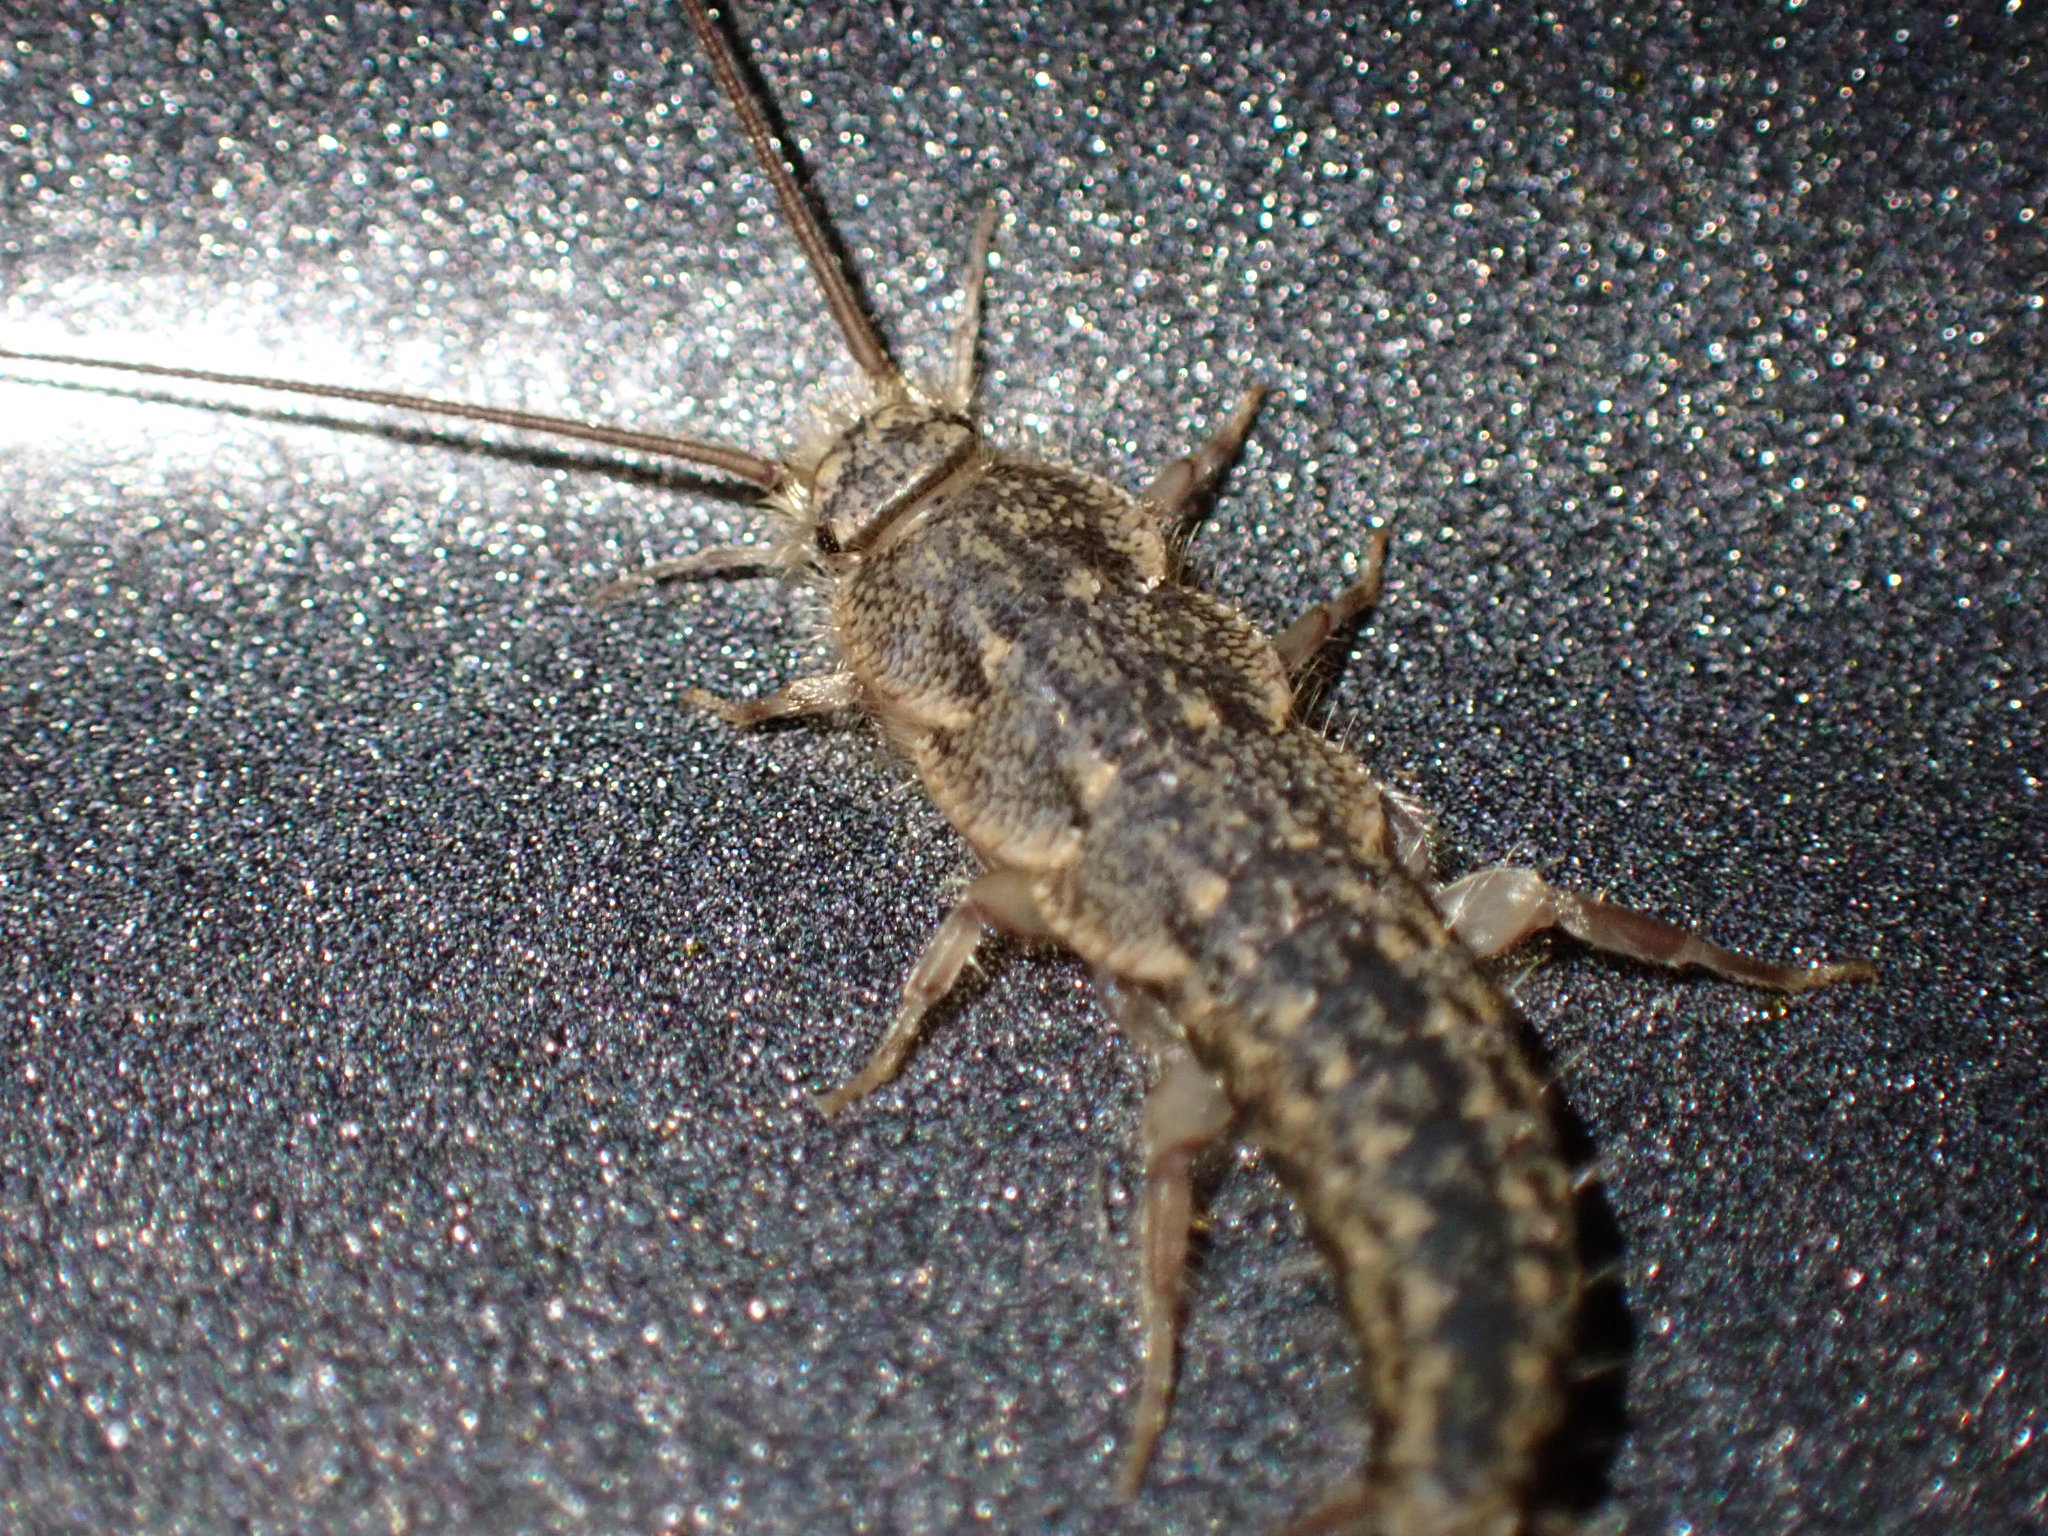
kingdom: Animalia
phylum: Arthropoda
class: Insecta
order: Zygentoma
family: Lepismatidae
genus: Ctenolepisma
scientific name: Ctenolepisma lineata
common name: Four-lined silverfish
